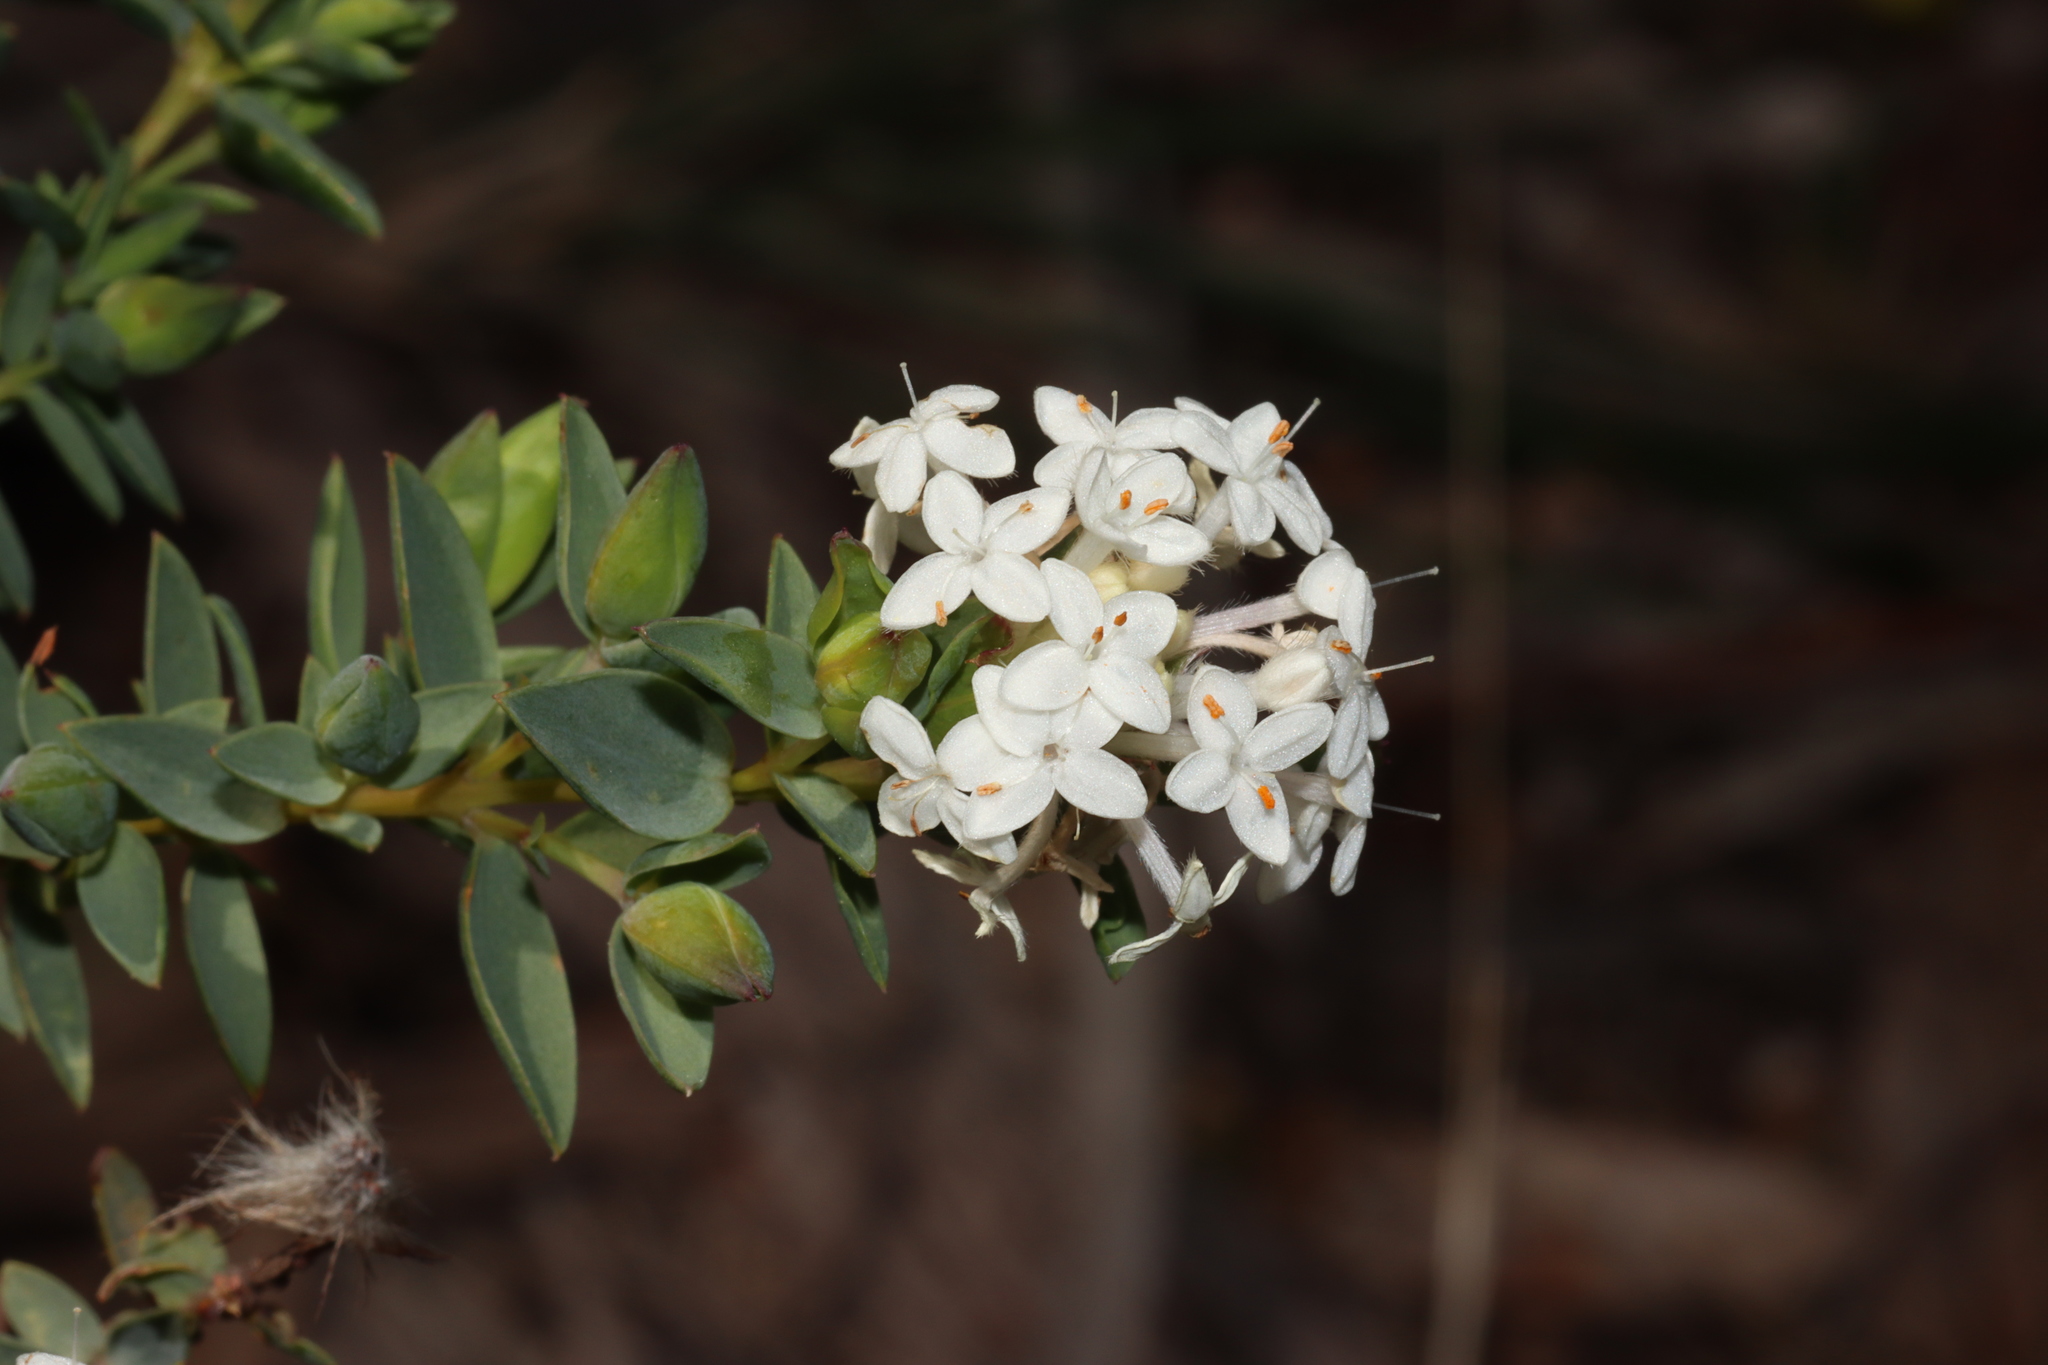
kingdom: Plantae
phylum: Tracheophyta
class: Magnoliopsida
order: Malvales
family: Thymelaeaceae
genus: Pimelea
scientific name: Pimelea glauca
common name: Smooth riceflower
